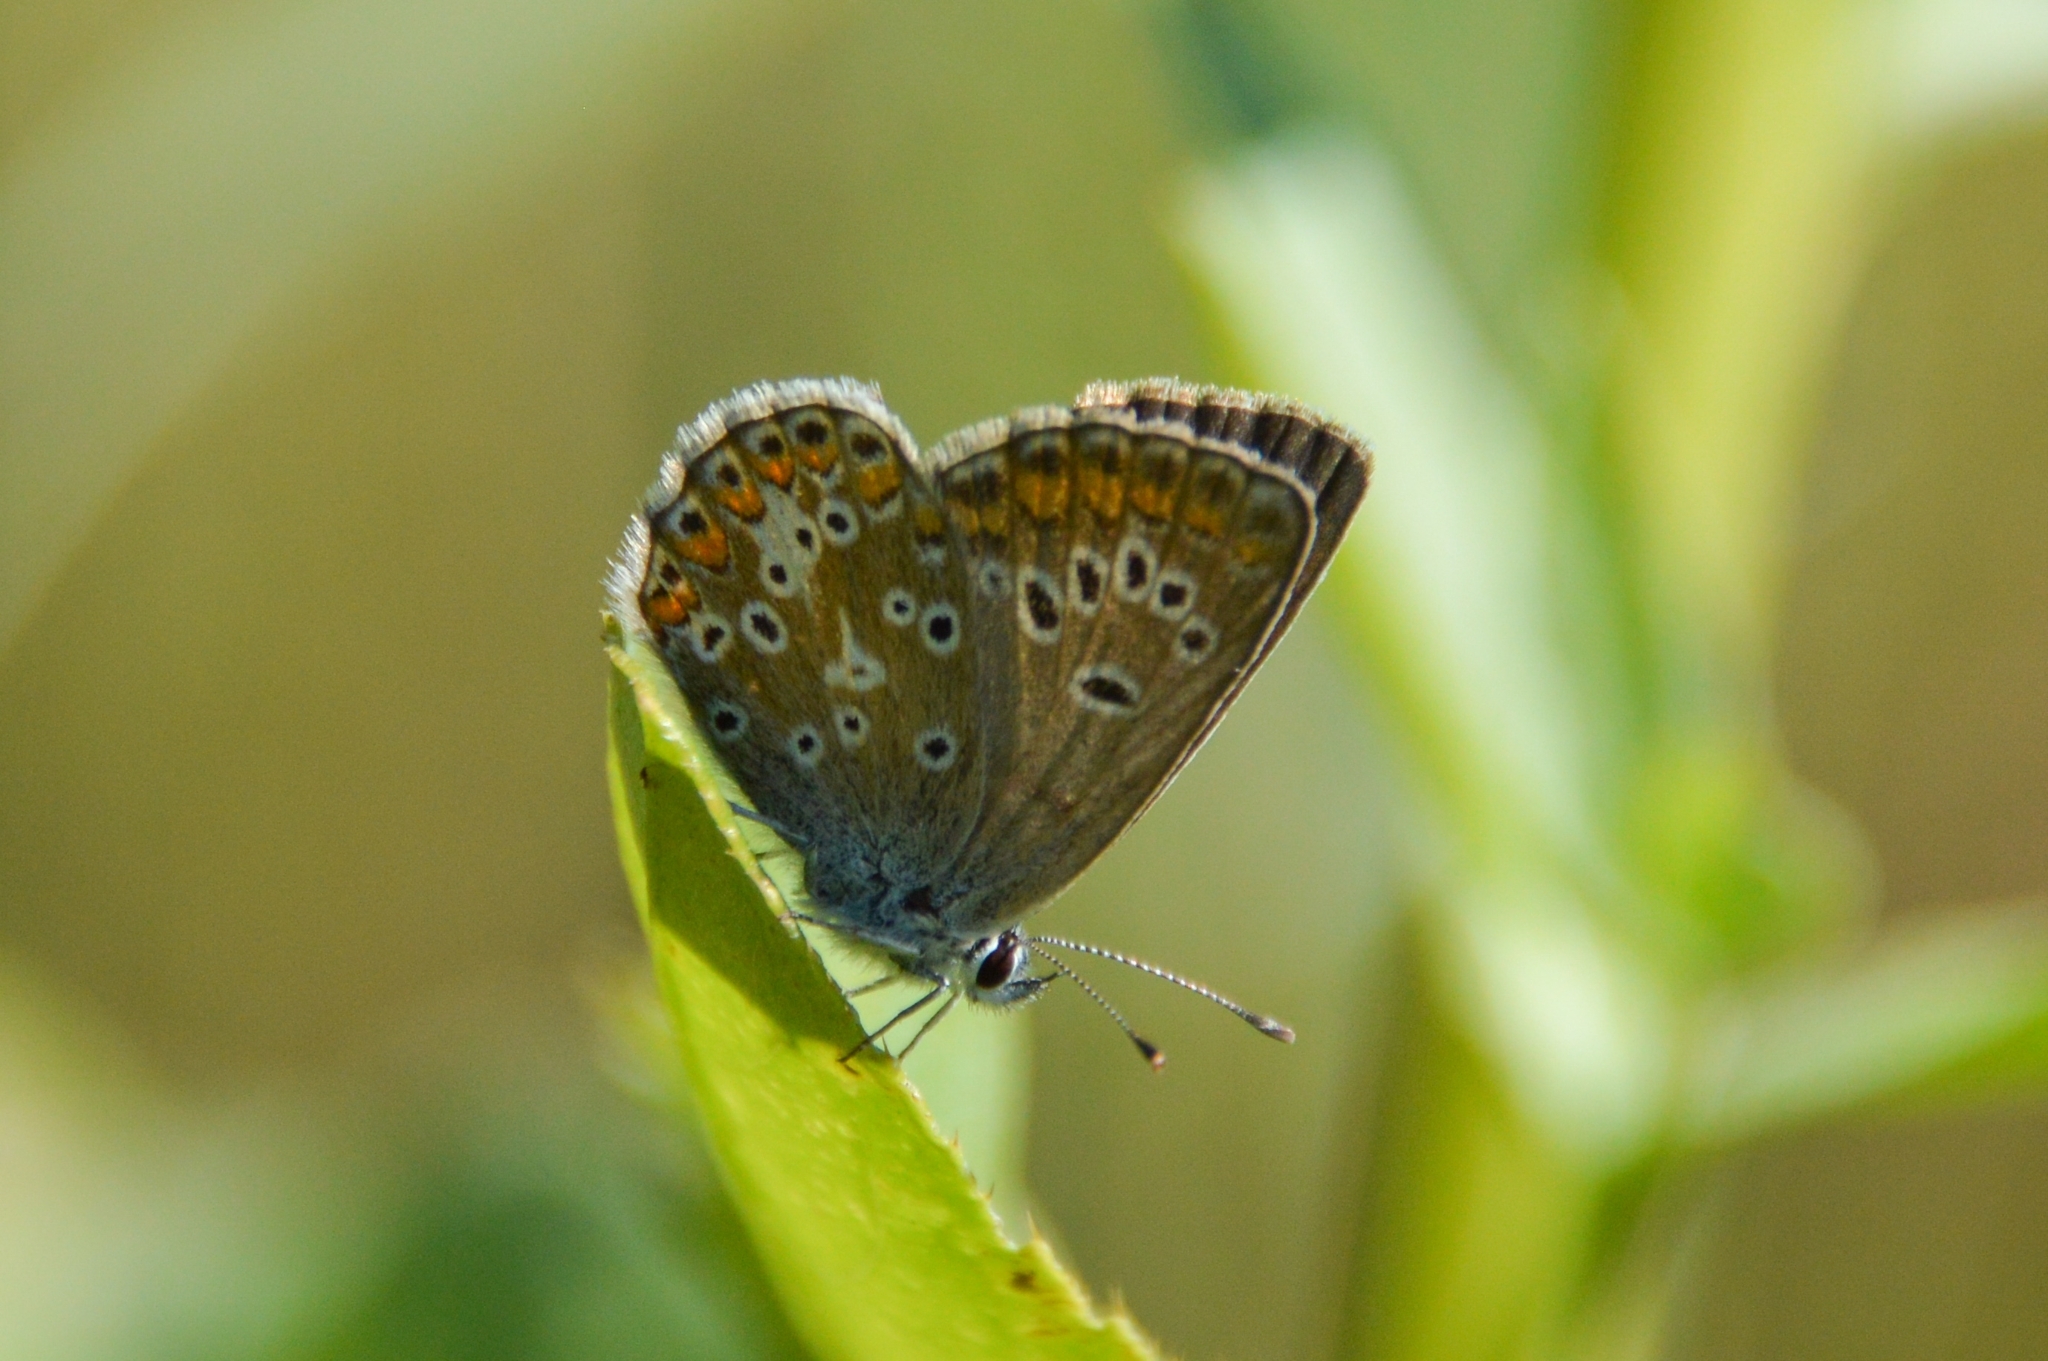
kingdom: Animalia
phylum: Arthropoda
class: Insecta
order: Lepidoptera
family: Lycaenidae
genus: Aricia
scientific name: Aricia artaxerxes
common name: Northern brown argus
